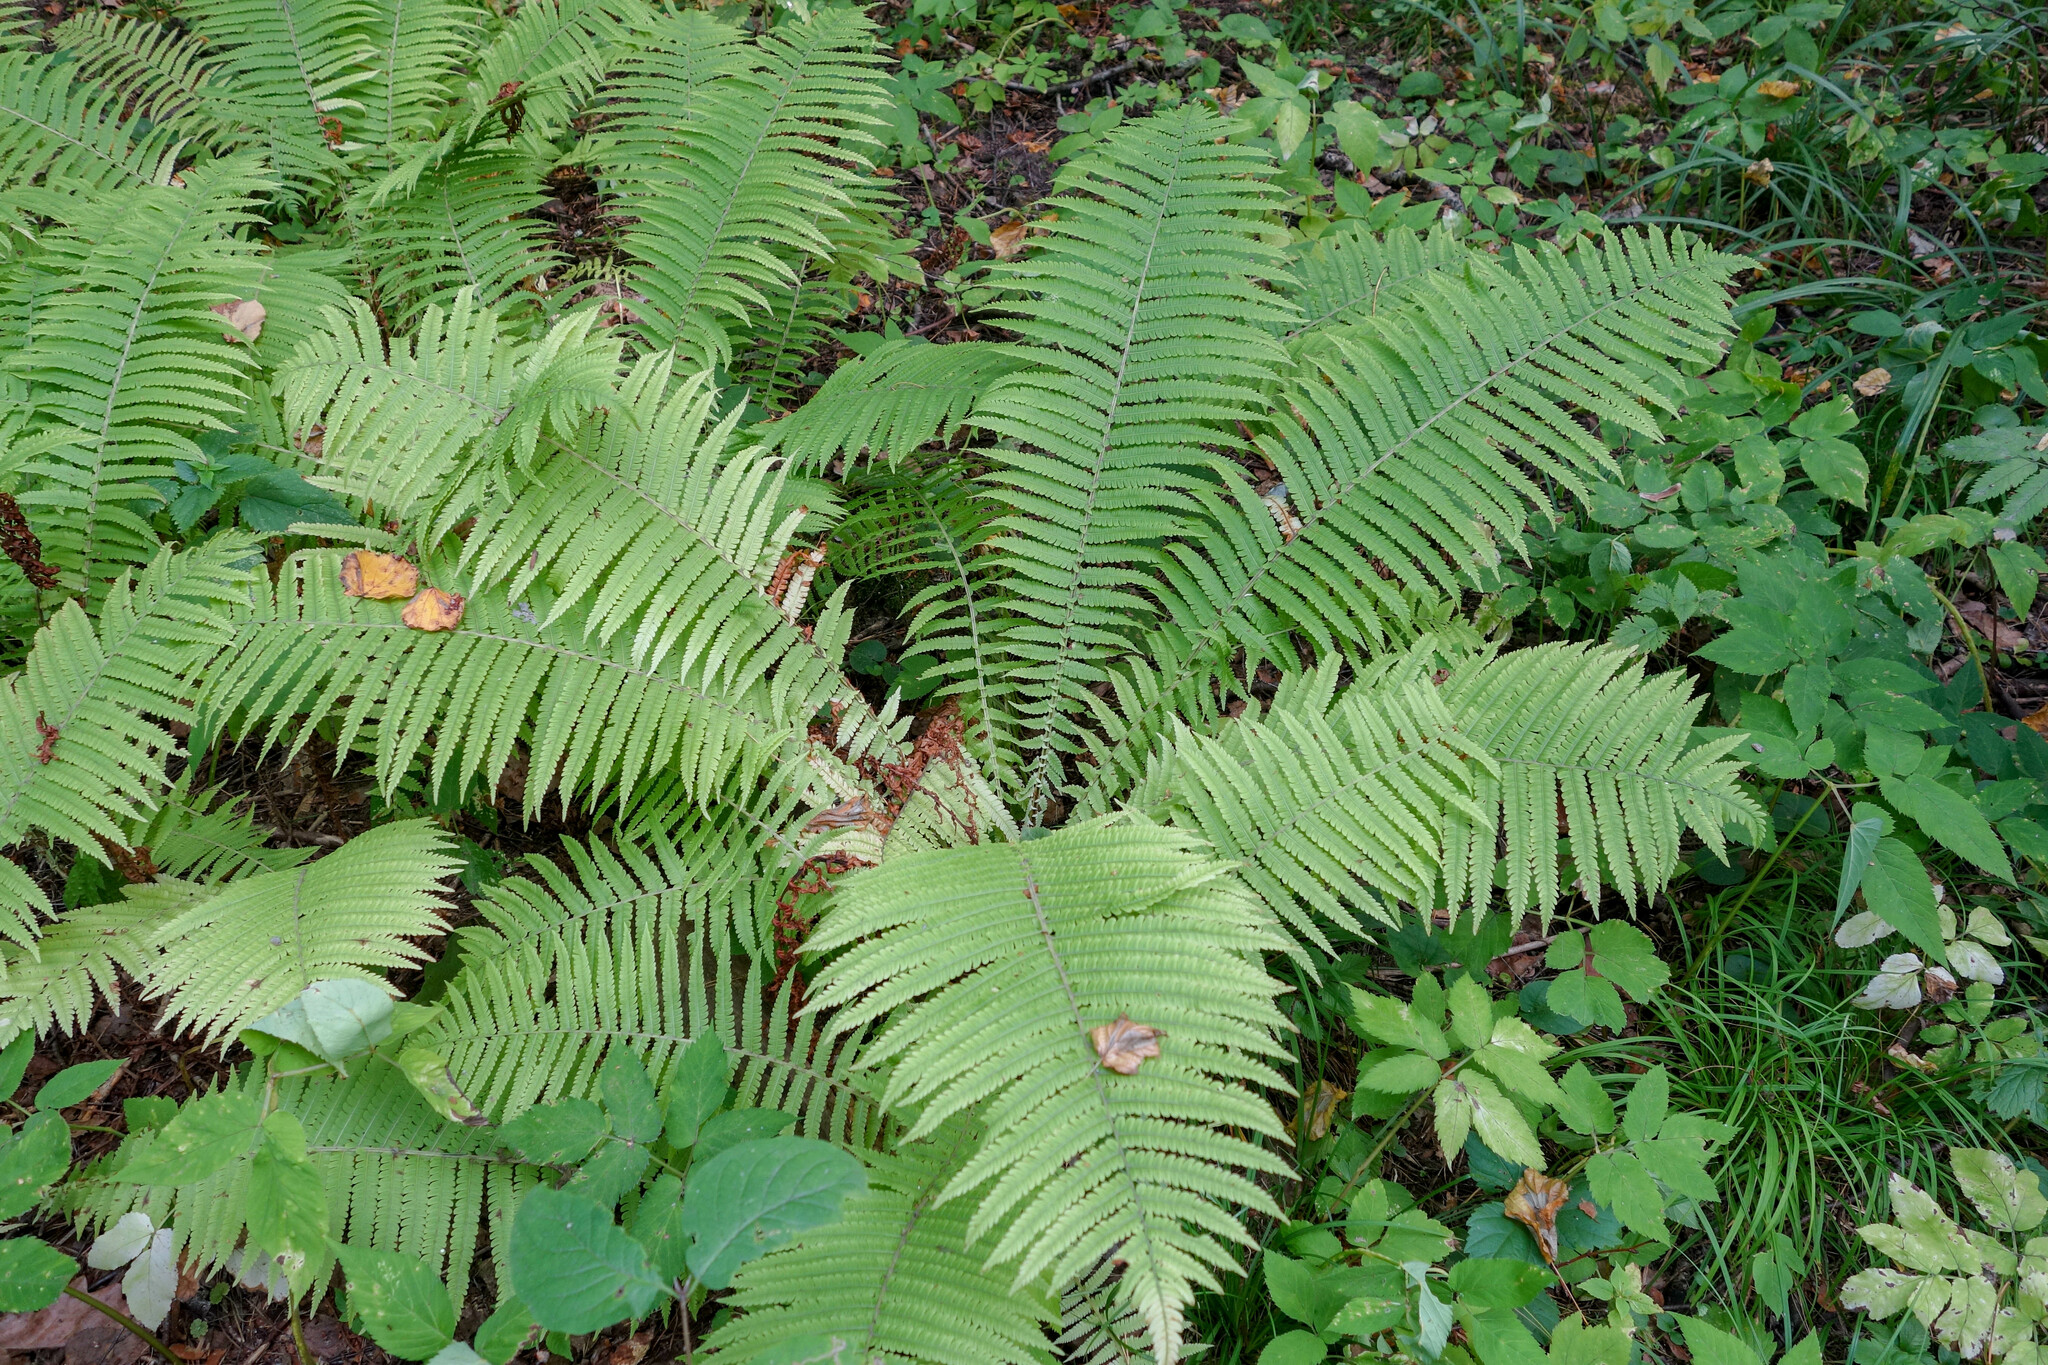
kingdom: Plantae
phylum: Tracheophyta
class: Polypodiopsida
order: Polypodiales
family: Onocleaceae
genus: Matteuccia
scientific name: Matteuccia struthiopteris
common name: Ostrich fern
